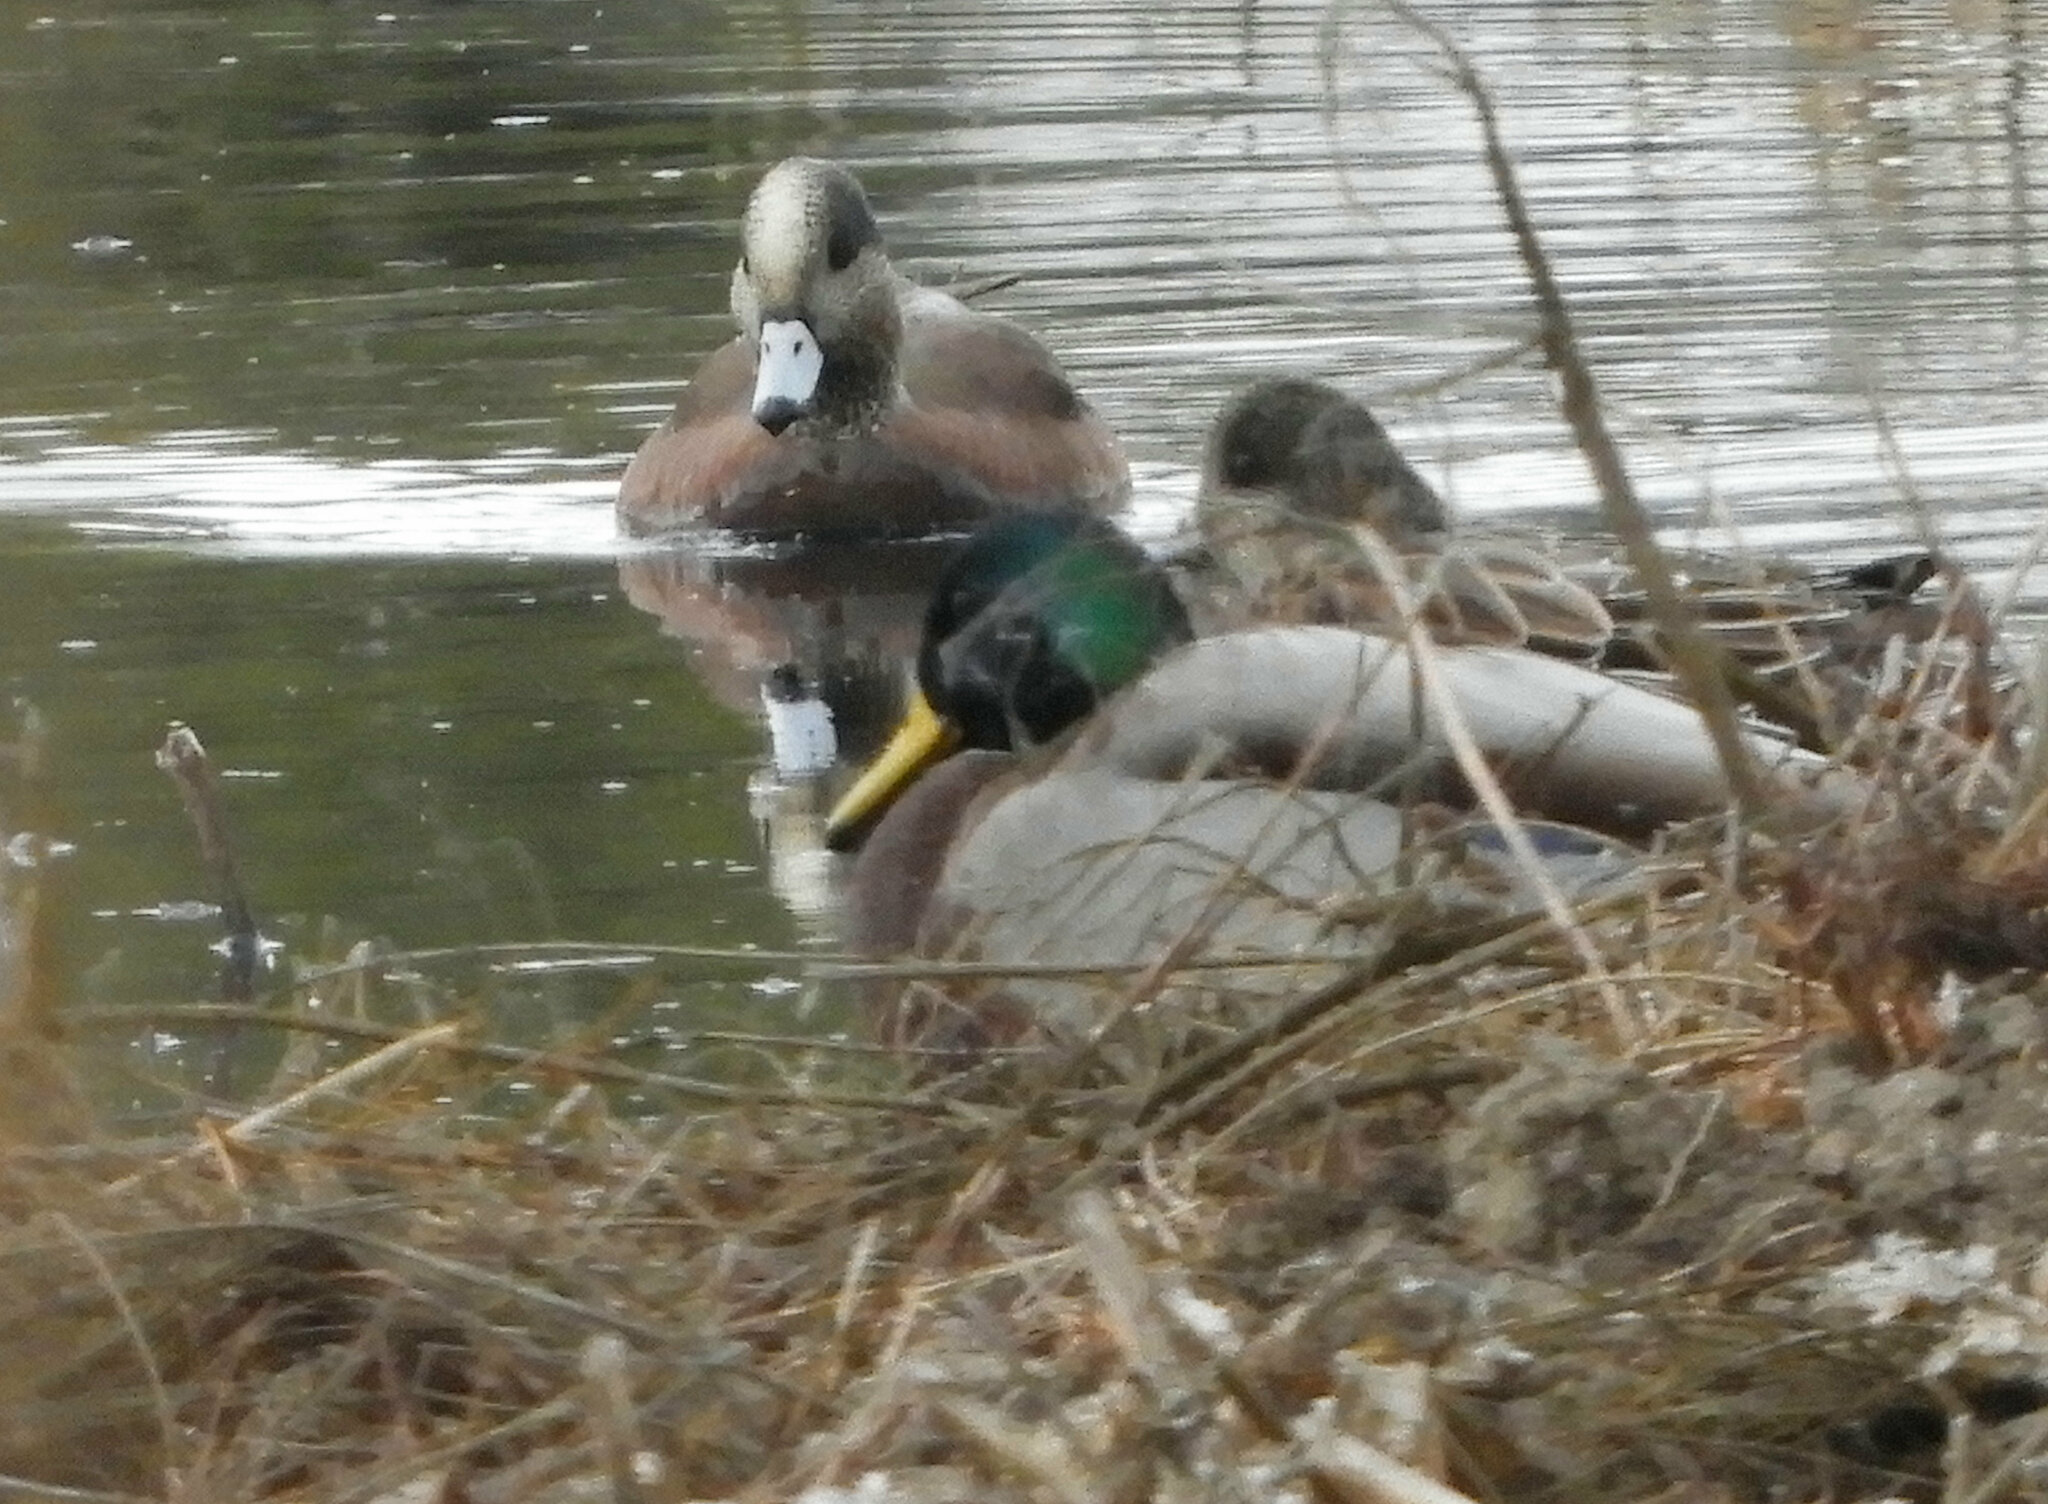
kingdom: Animalia
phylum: Chordata
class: Aves
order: Anseriformes
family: Anatidae
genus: Mareca
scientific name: Mareca americana
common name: American wigeon
